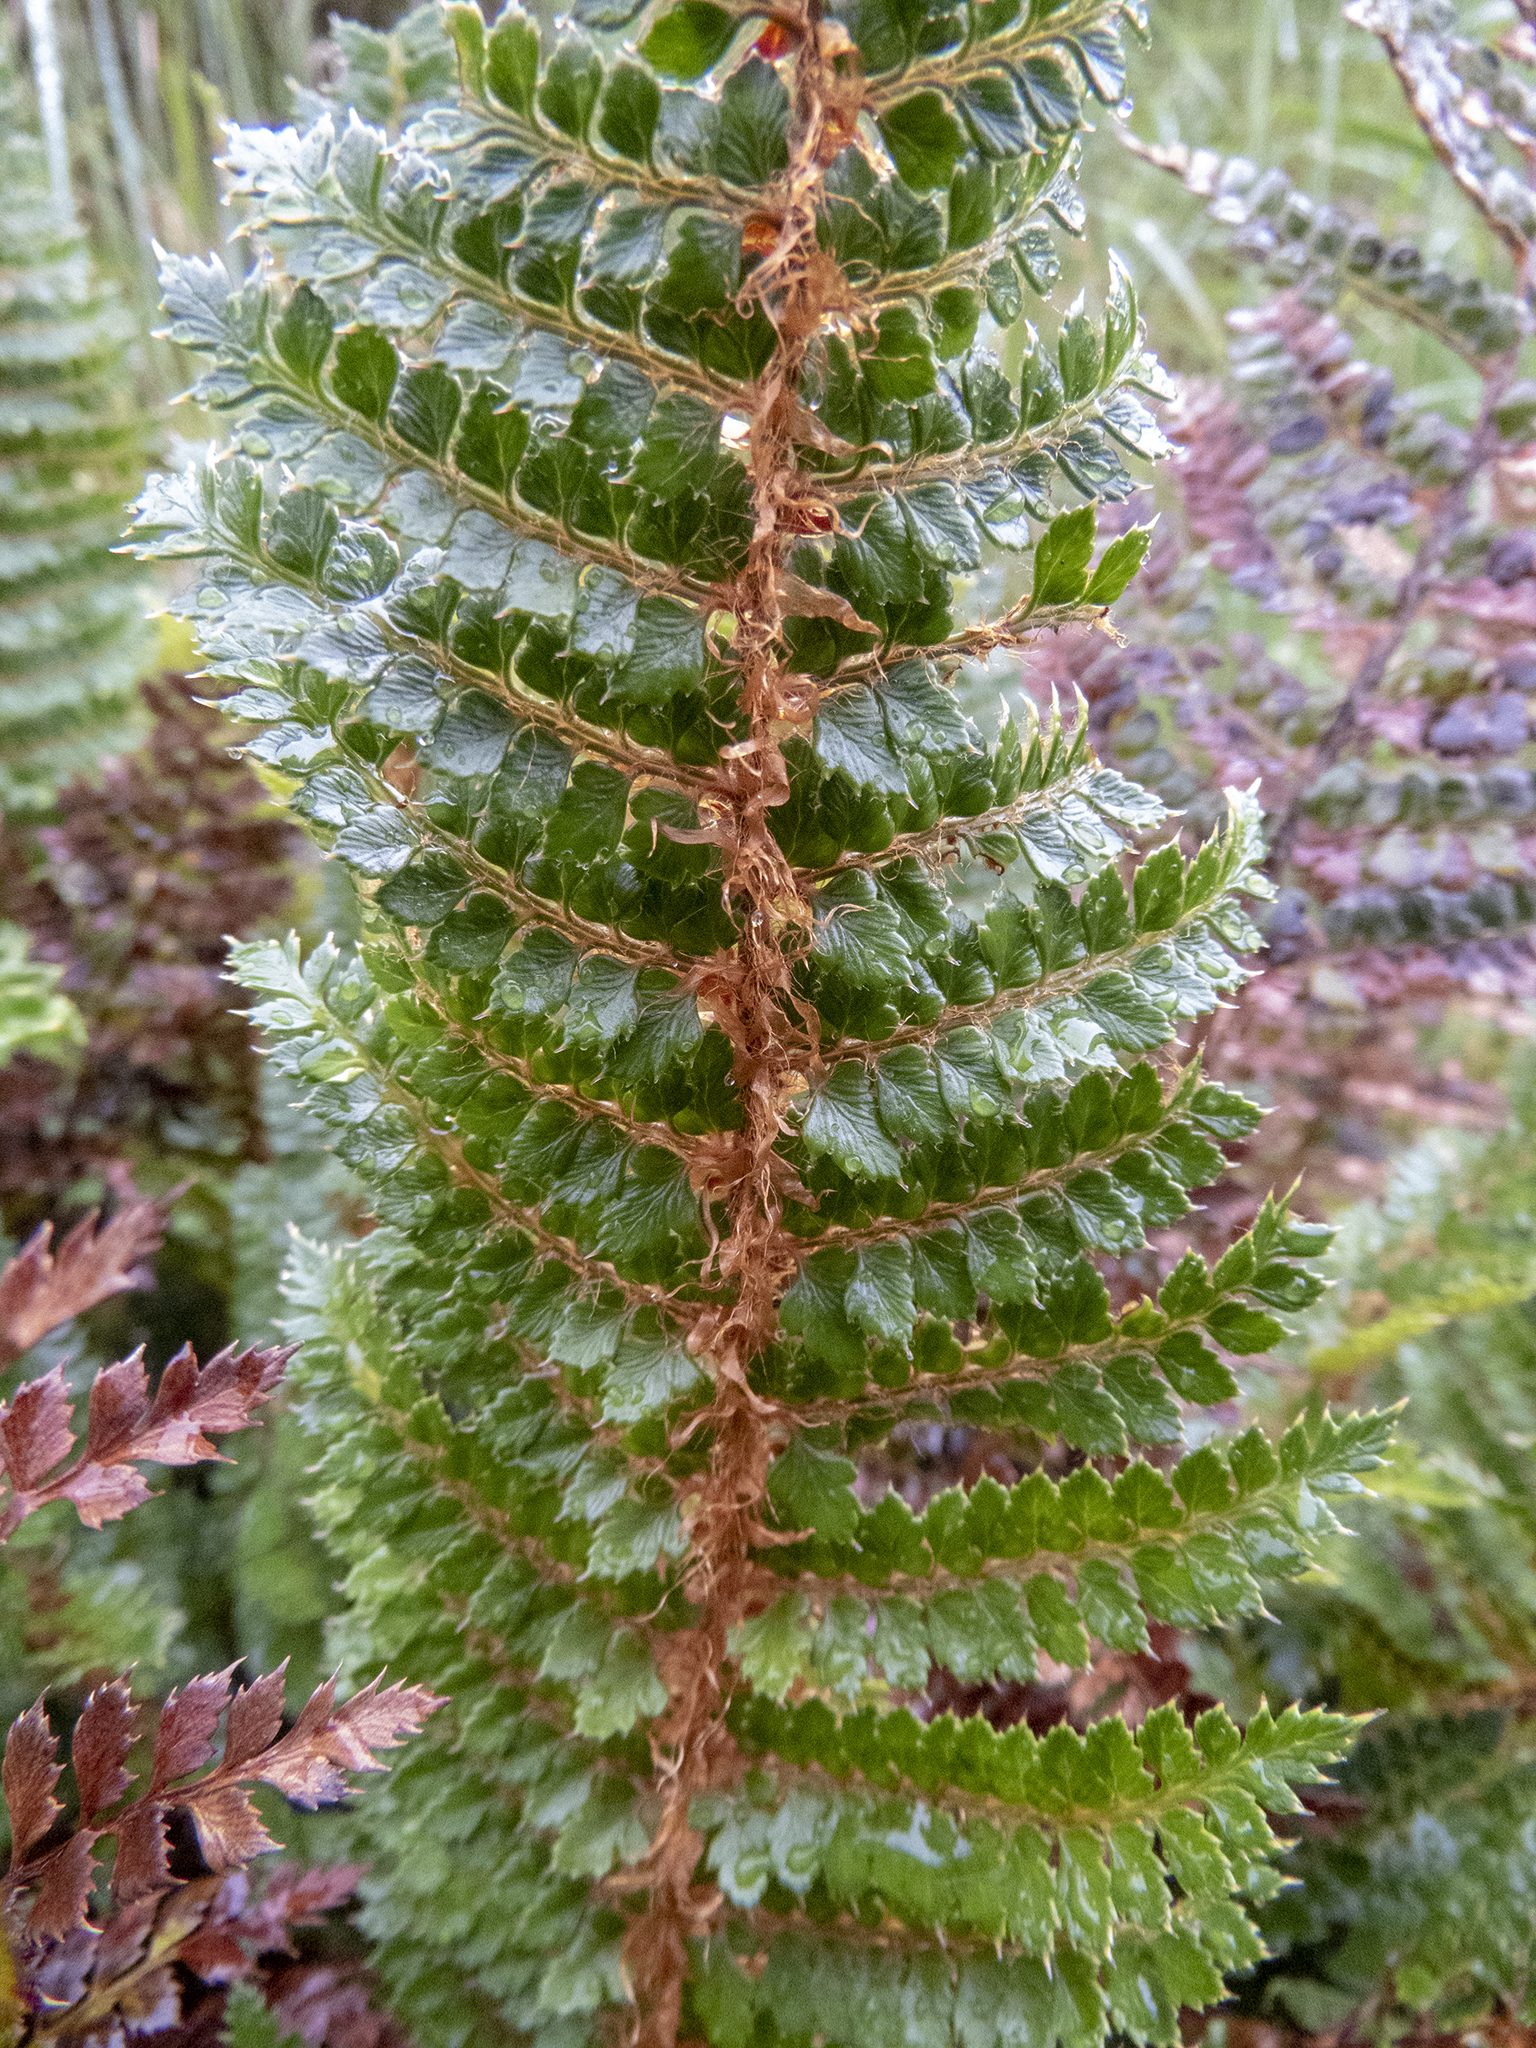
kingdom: Plantae
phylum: Tracheophyta
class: Polypodiopsida
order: Polypodiales
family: Dryopteridaceae
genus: Polystichum
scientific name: Polystichum vestitum
